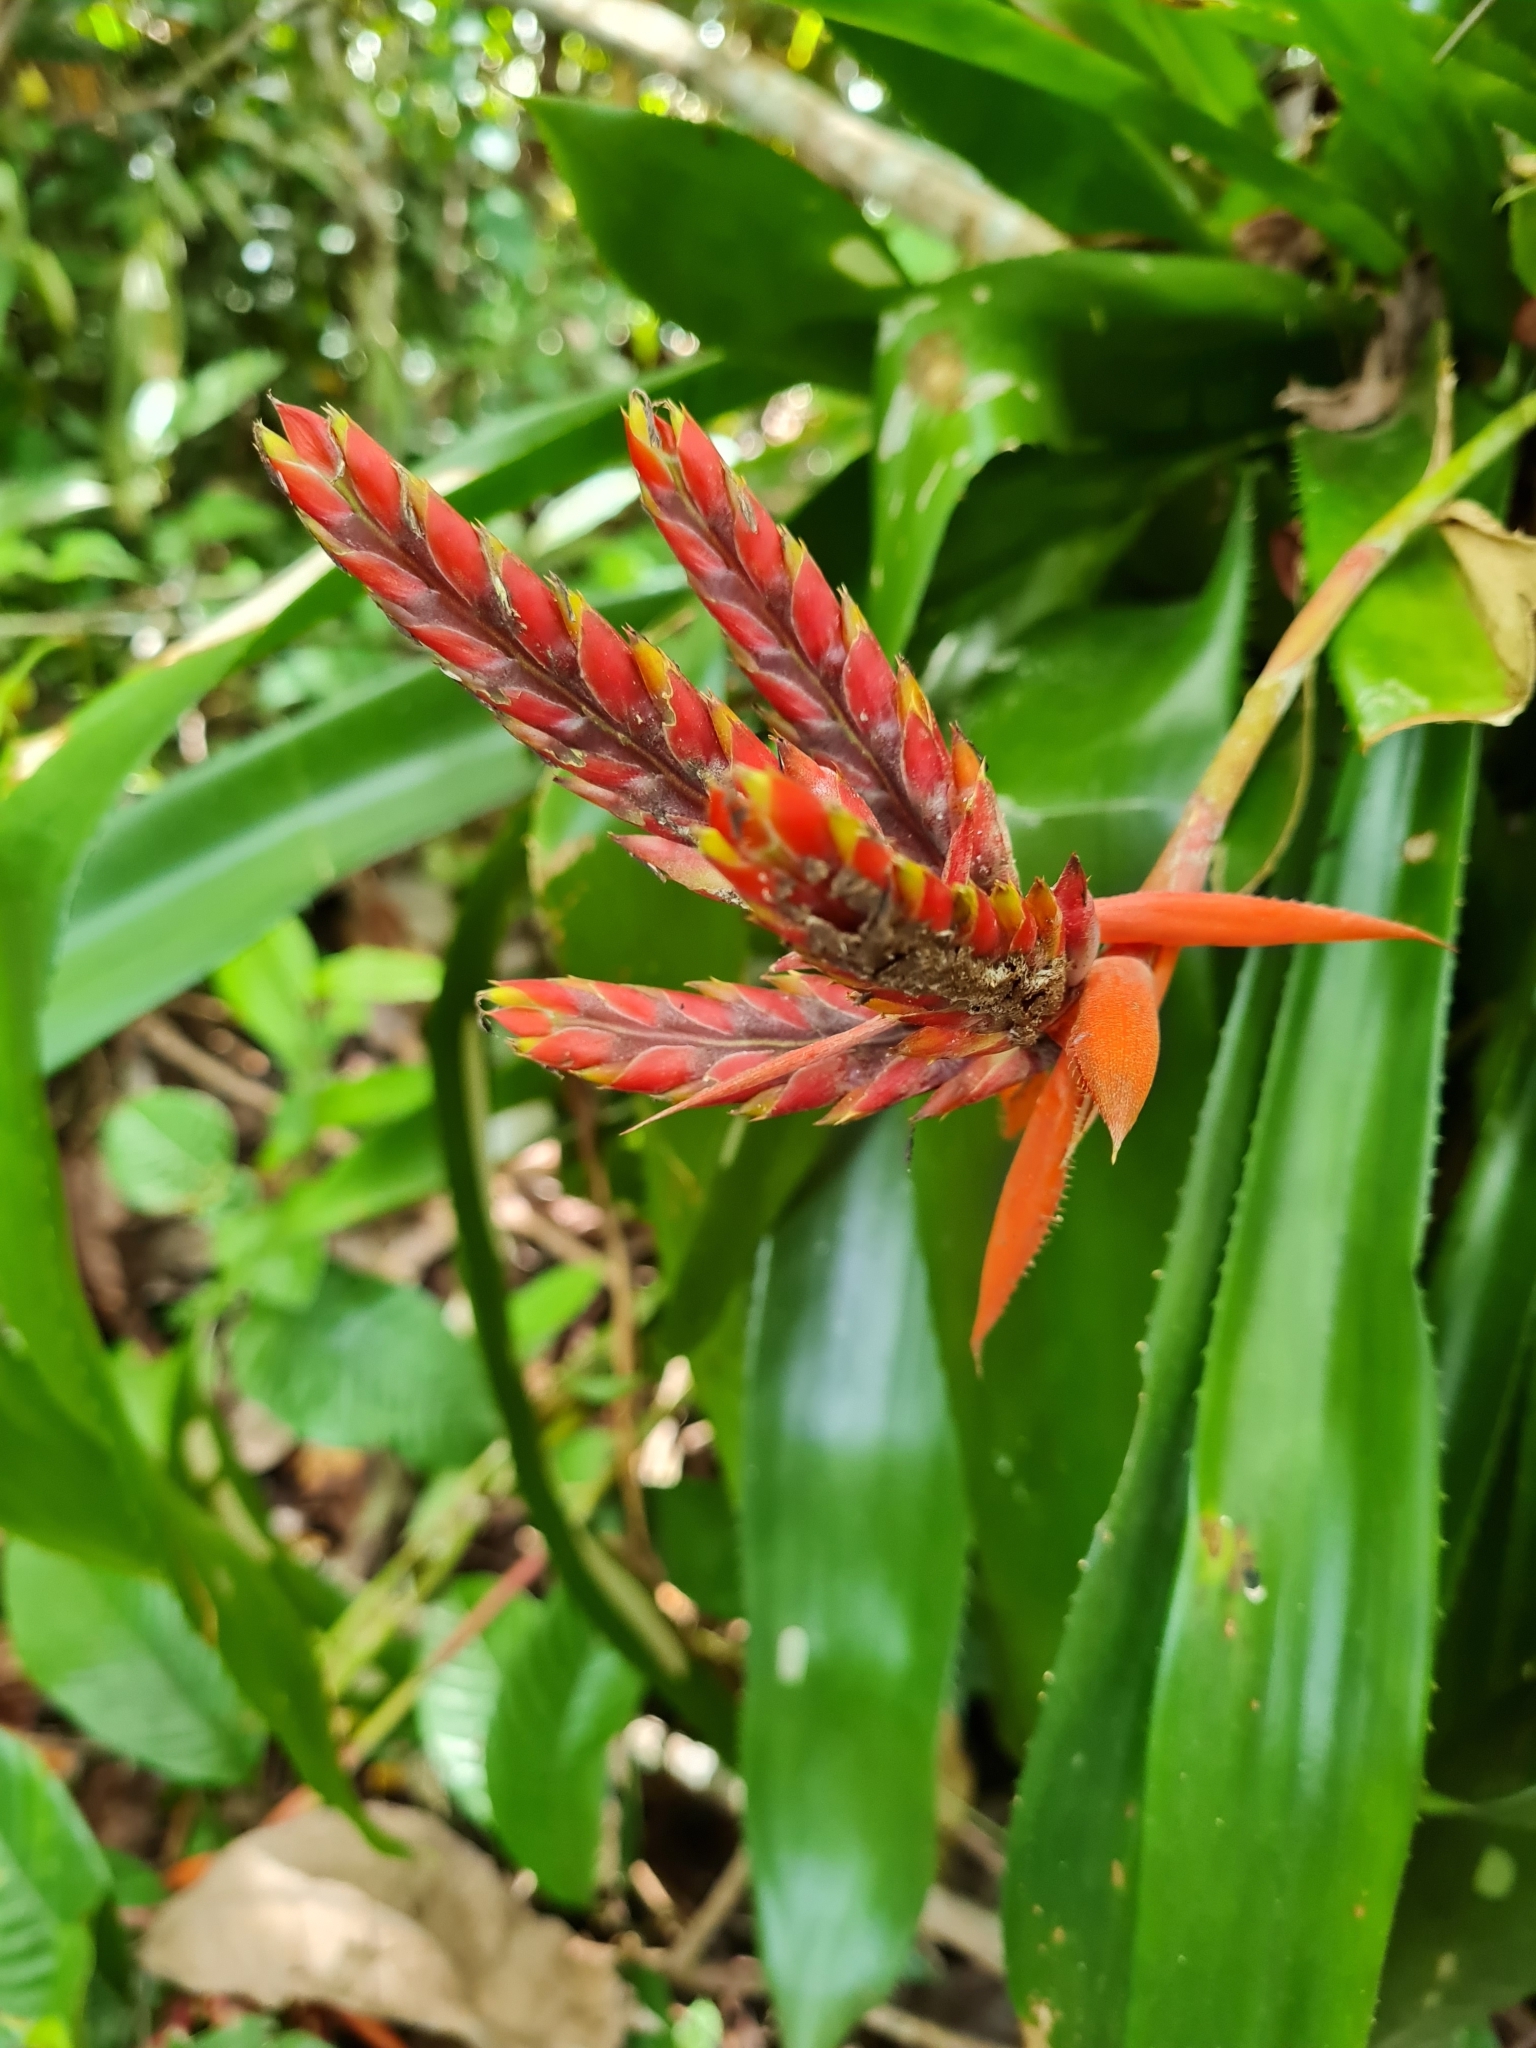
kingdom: Plantae
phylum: Tracheophyta
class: Liliopsida
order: Poales
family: Bromeliaceae
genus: Aechmea
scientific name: Aechmea tillandsioides
